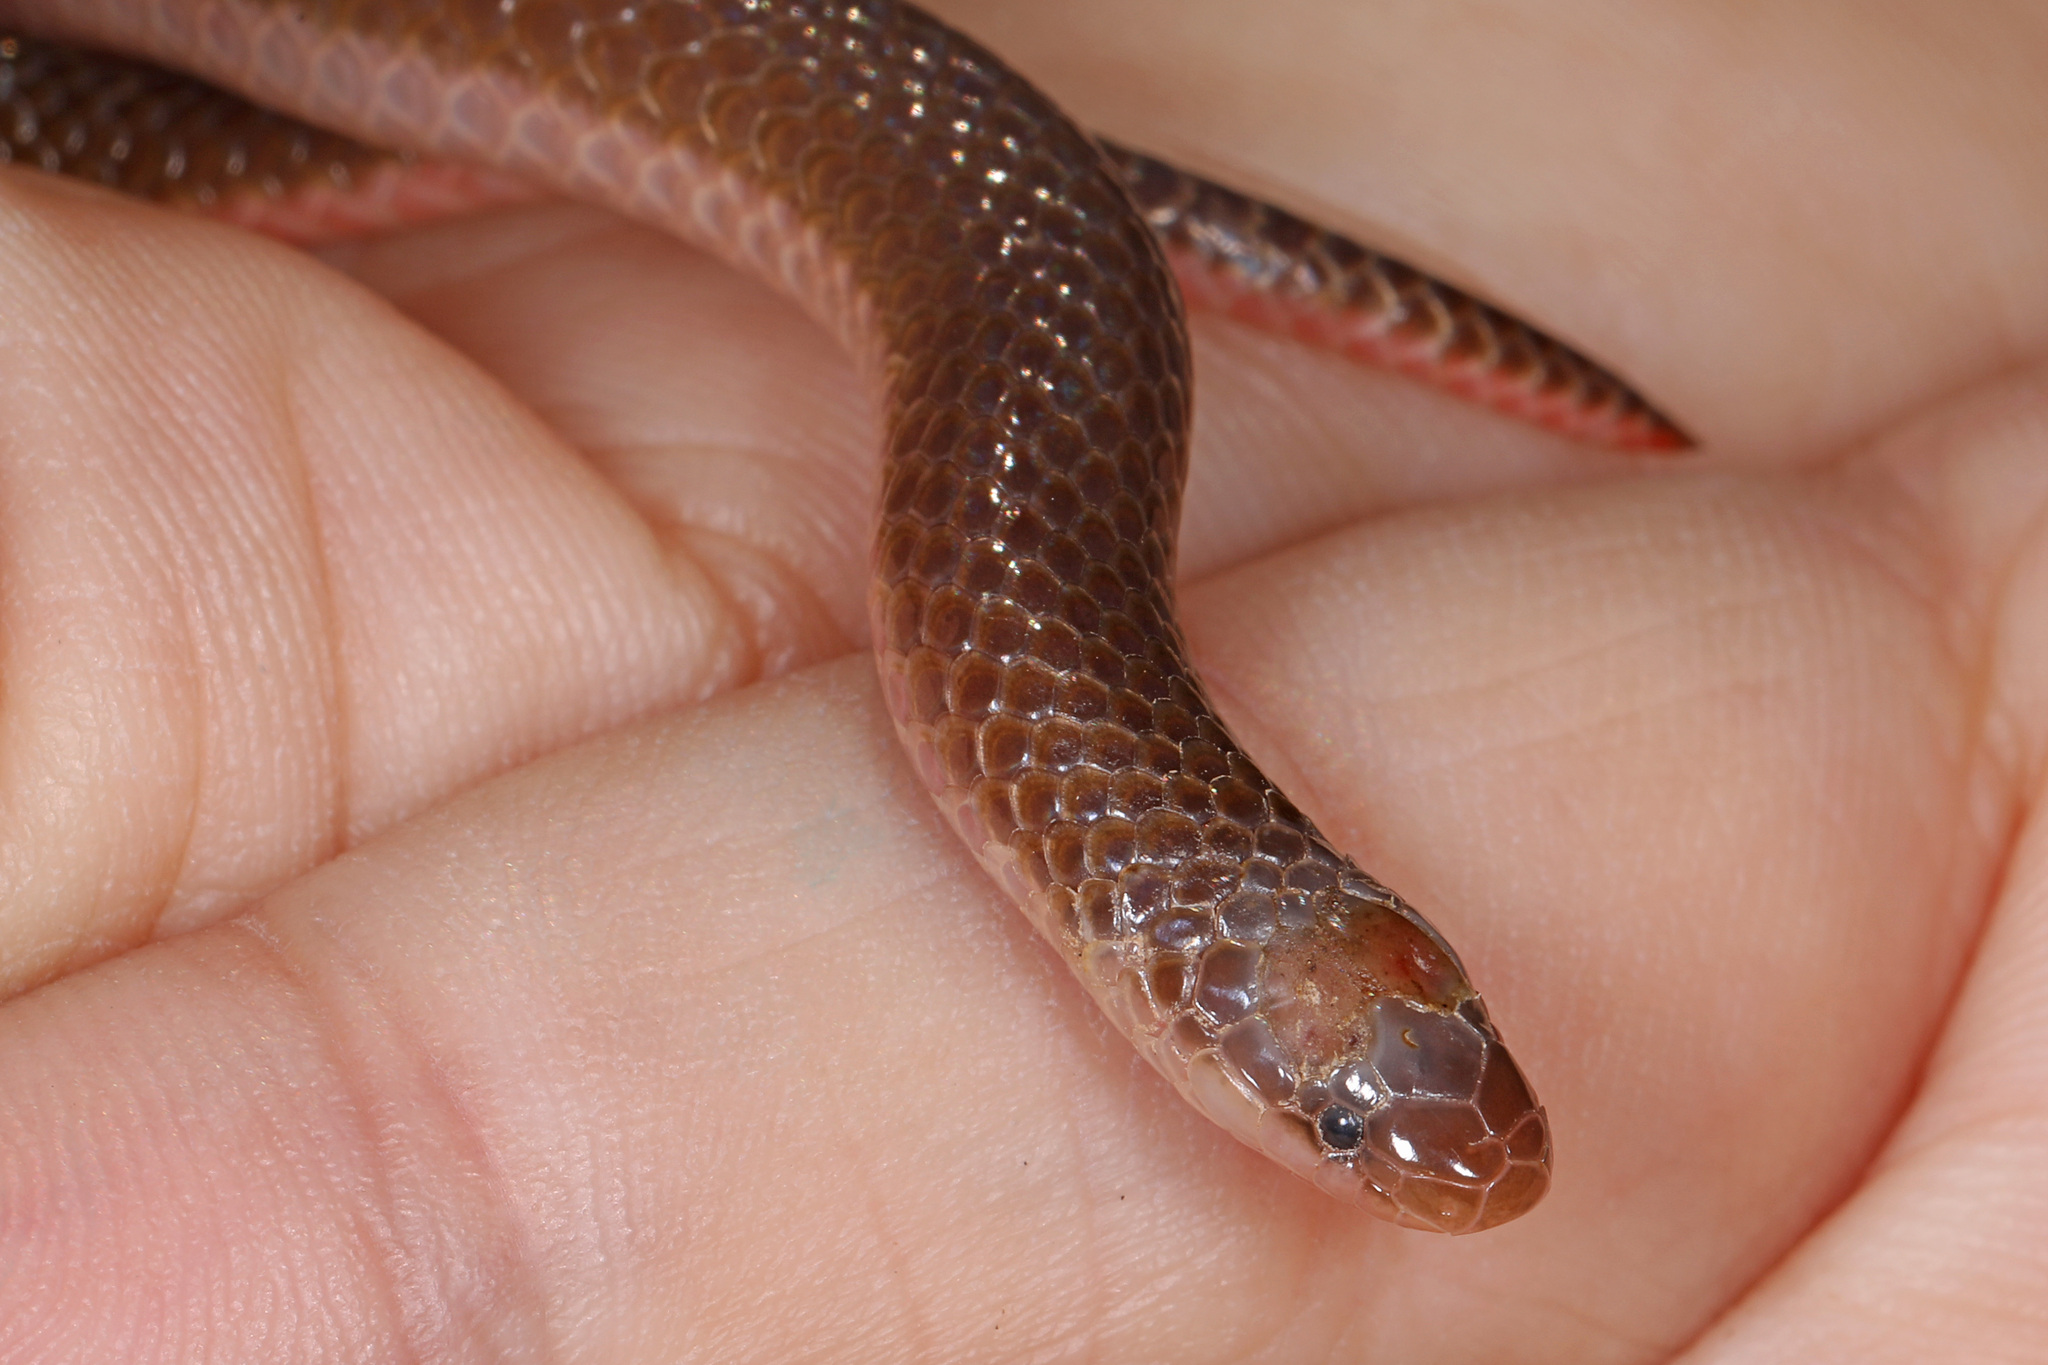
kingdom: Animalia
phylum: Chordata
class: Squamata
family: Colubridae
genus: Carphophis
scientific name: Carphophis amoenus
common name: Eastern worm snake
